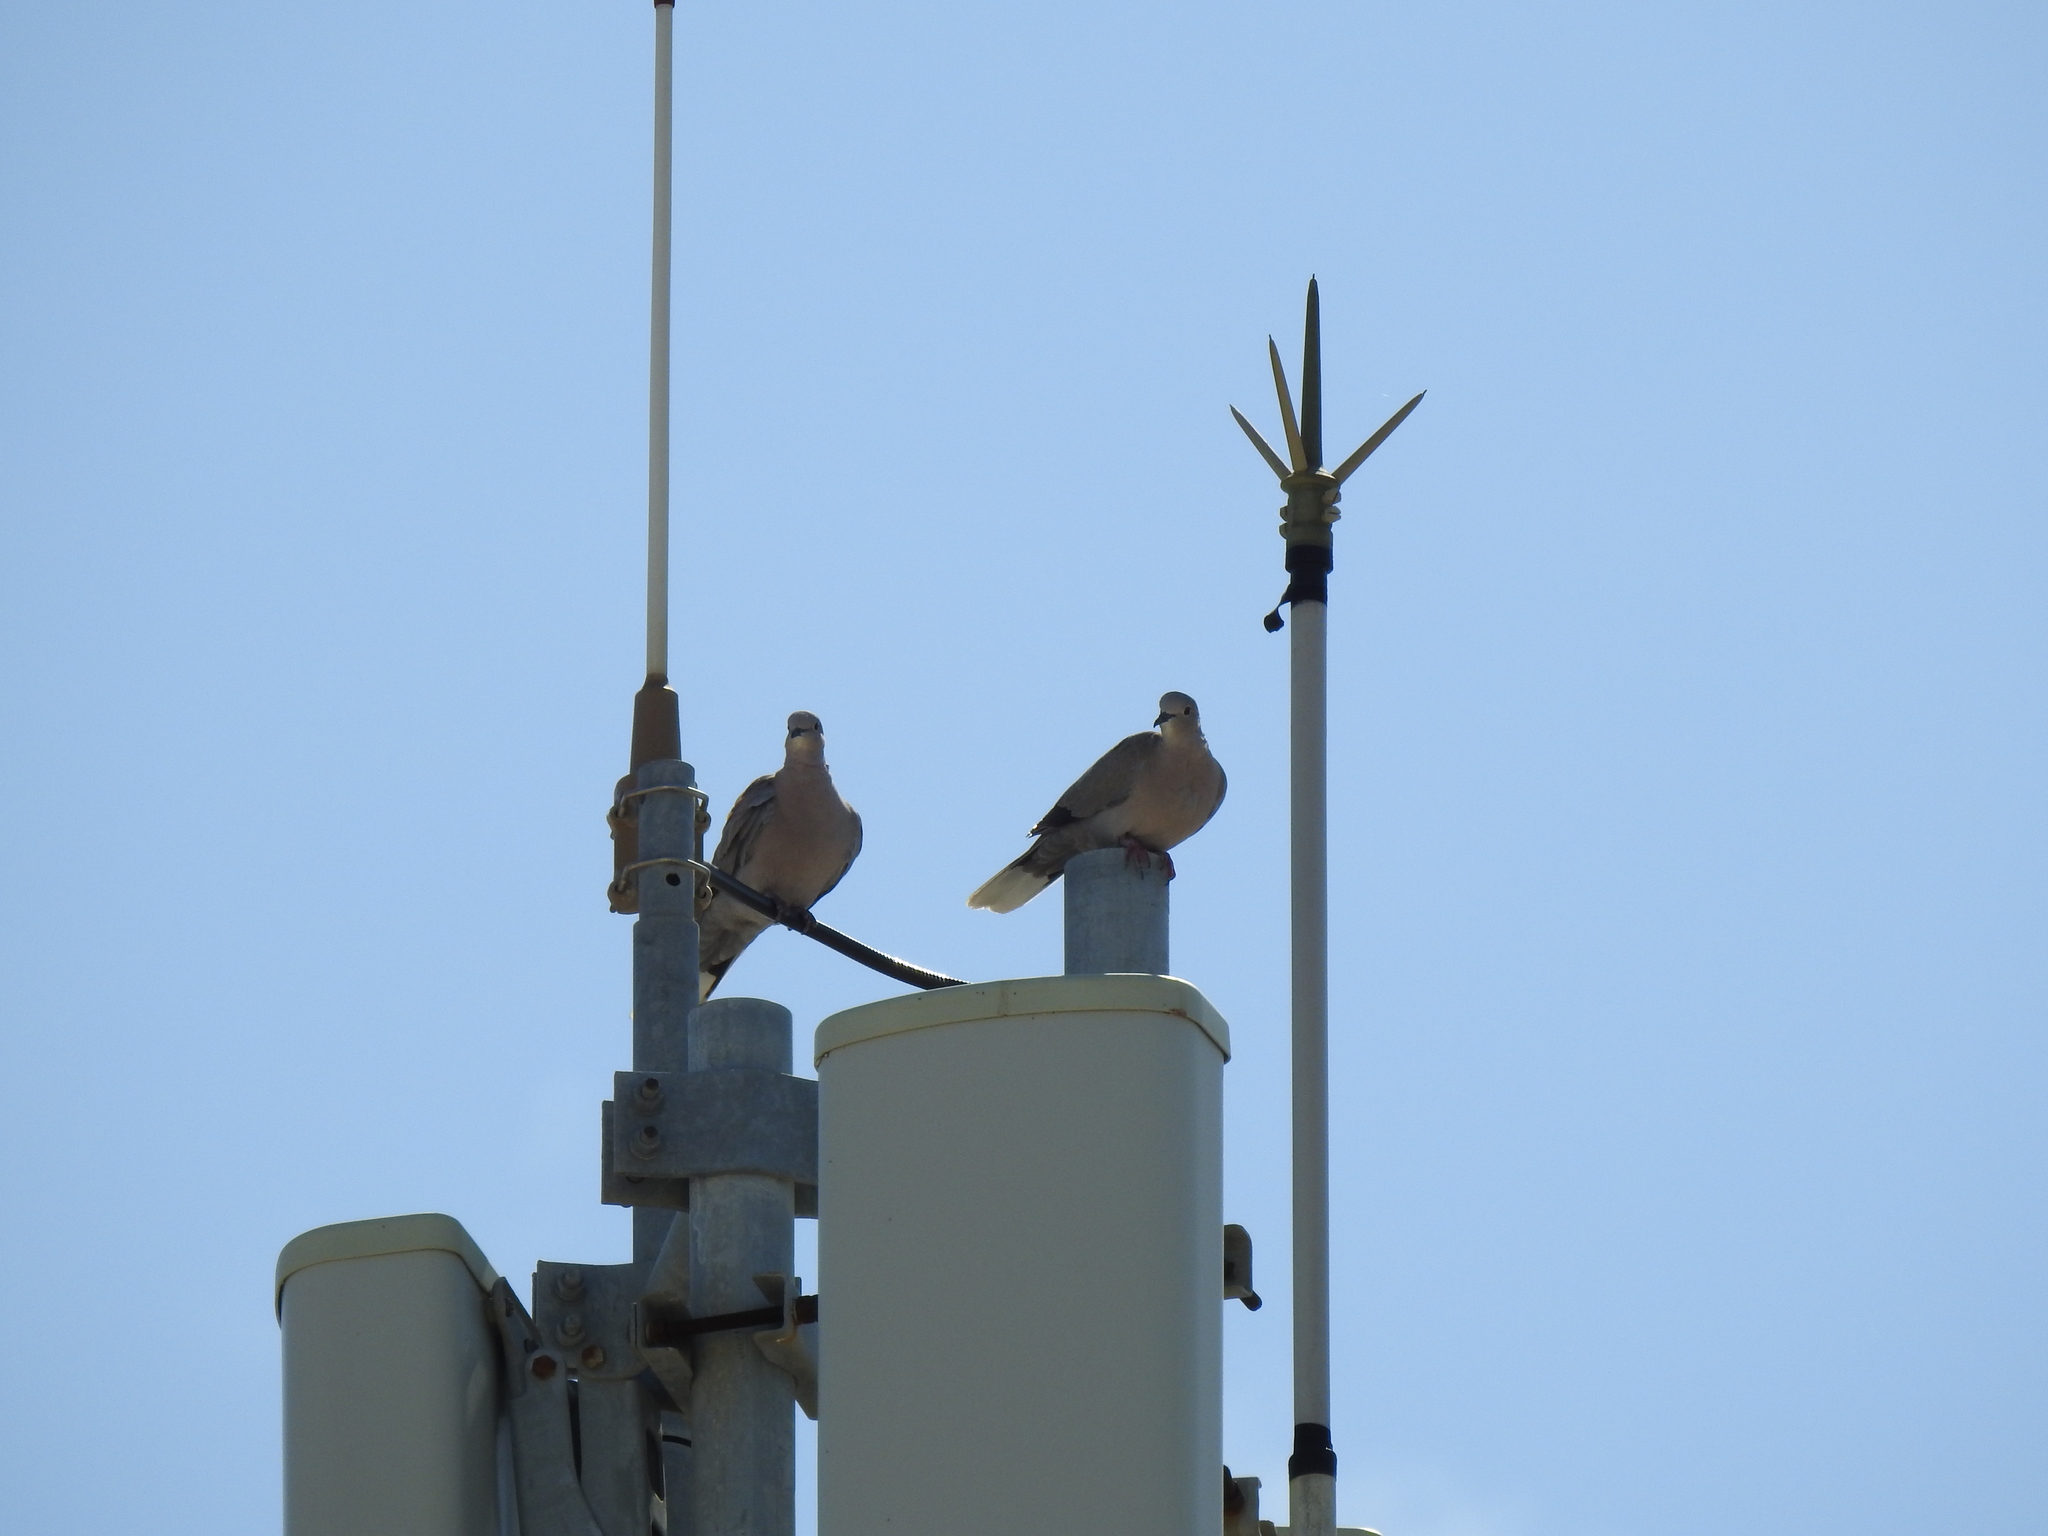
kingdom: Animalia
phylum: Chordata
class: Aves
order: Columbiformes
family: Columbidae
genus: Streptopelia
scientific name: Streptopelia decaocto
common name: Eurasian collared dove
